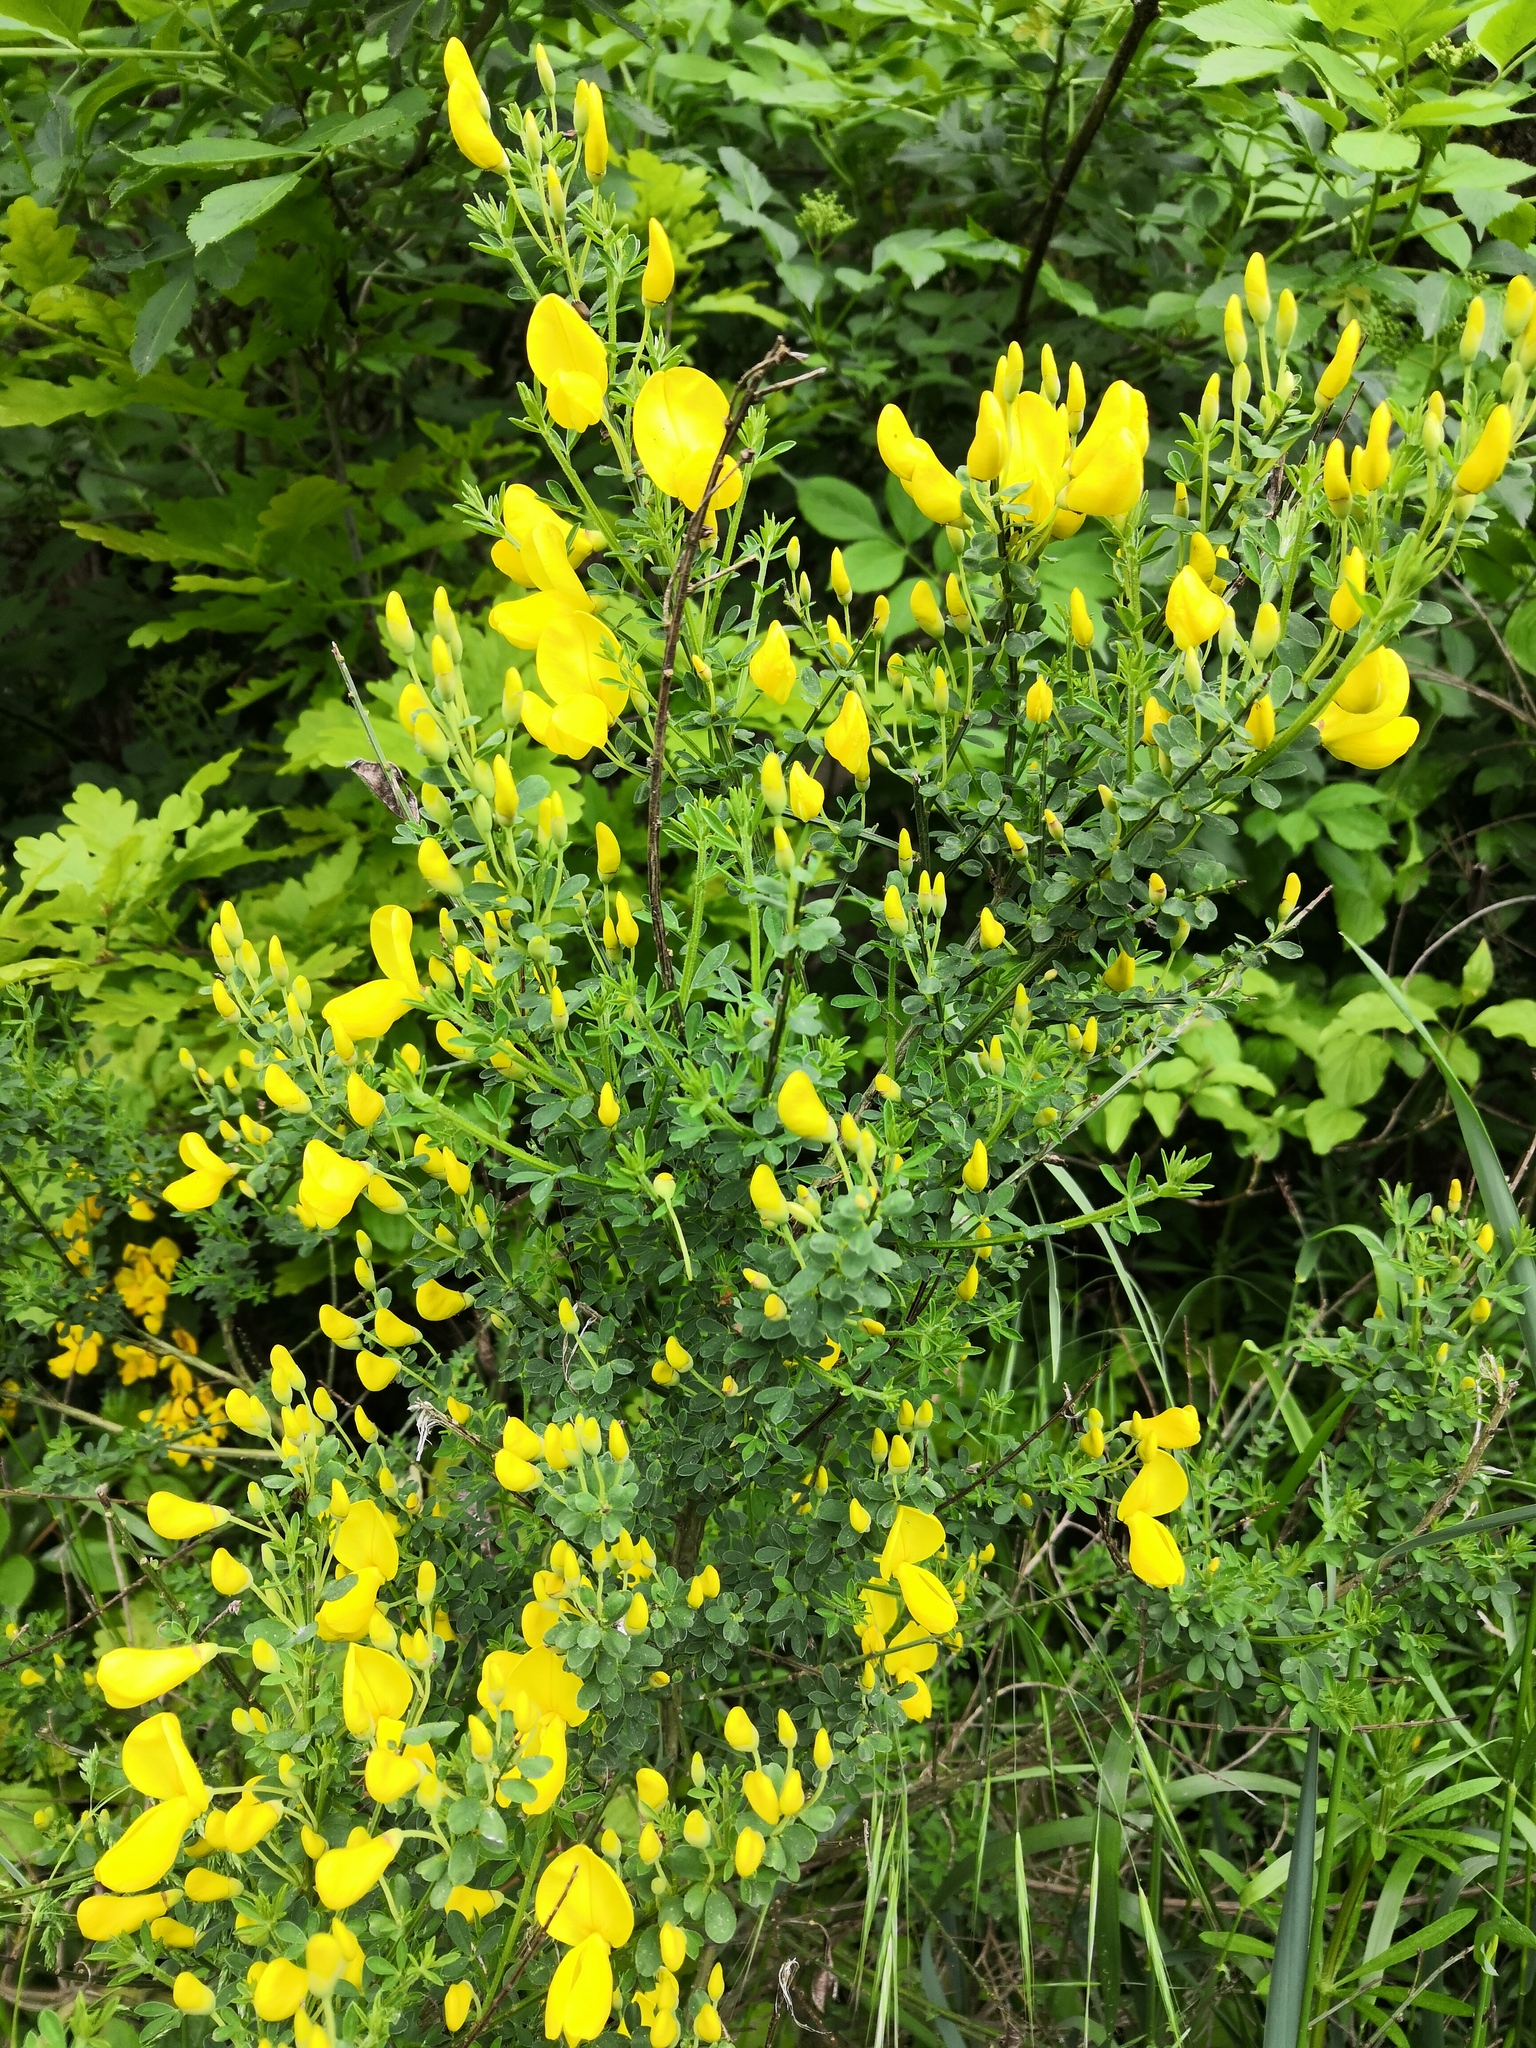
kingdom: Plantae
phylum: Tracheophyta
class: Magnoliopsida
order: Fabales
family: Fabaceae
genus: Cytisus
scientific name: Cytisus scoparius
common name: Scotch broom
